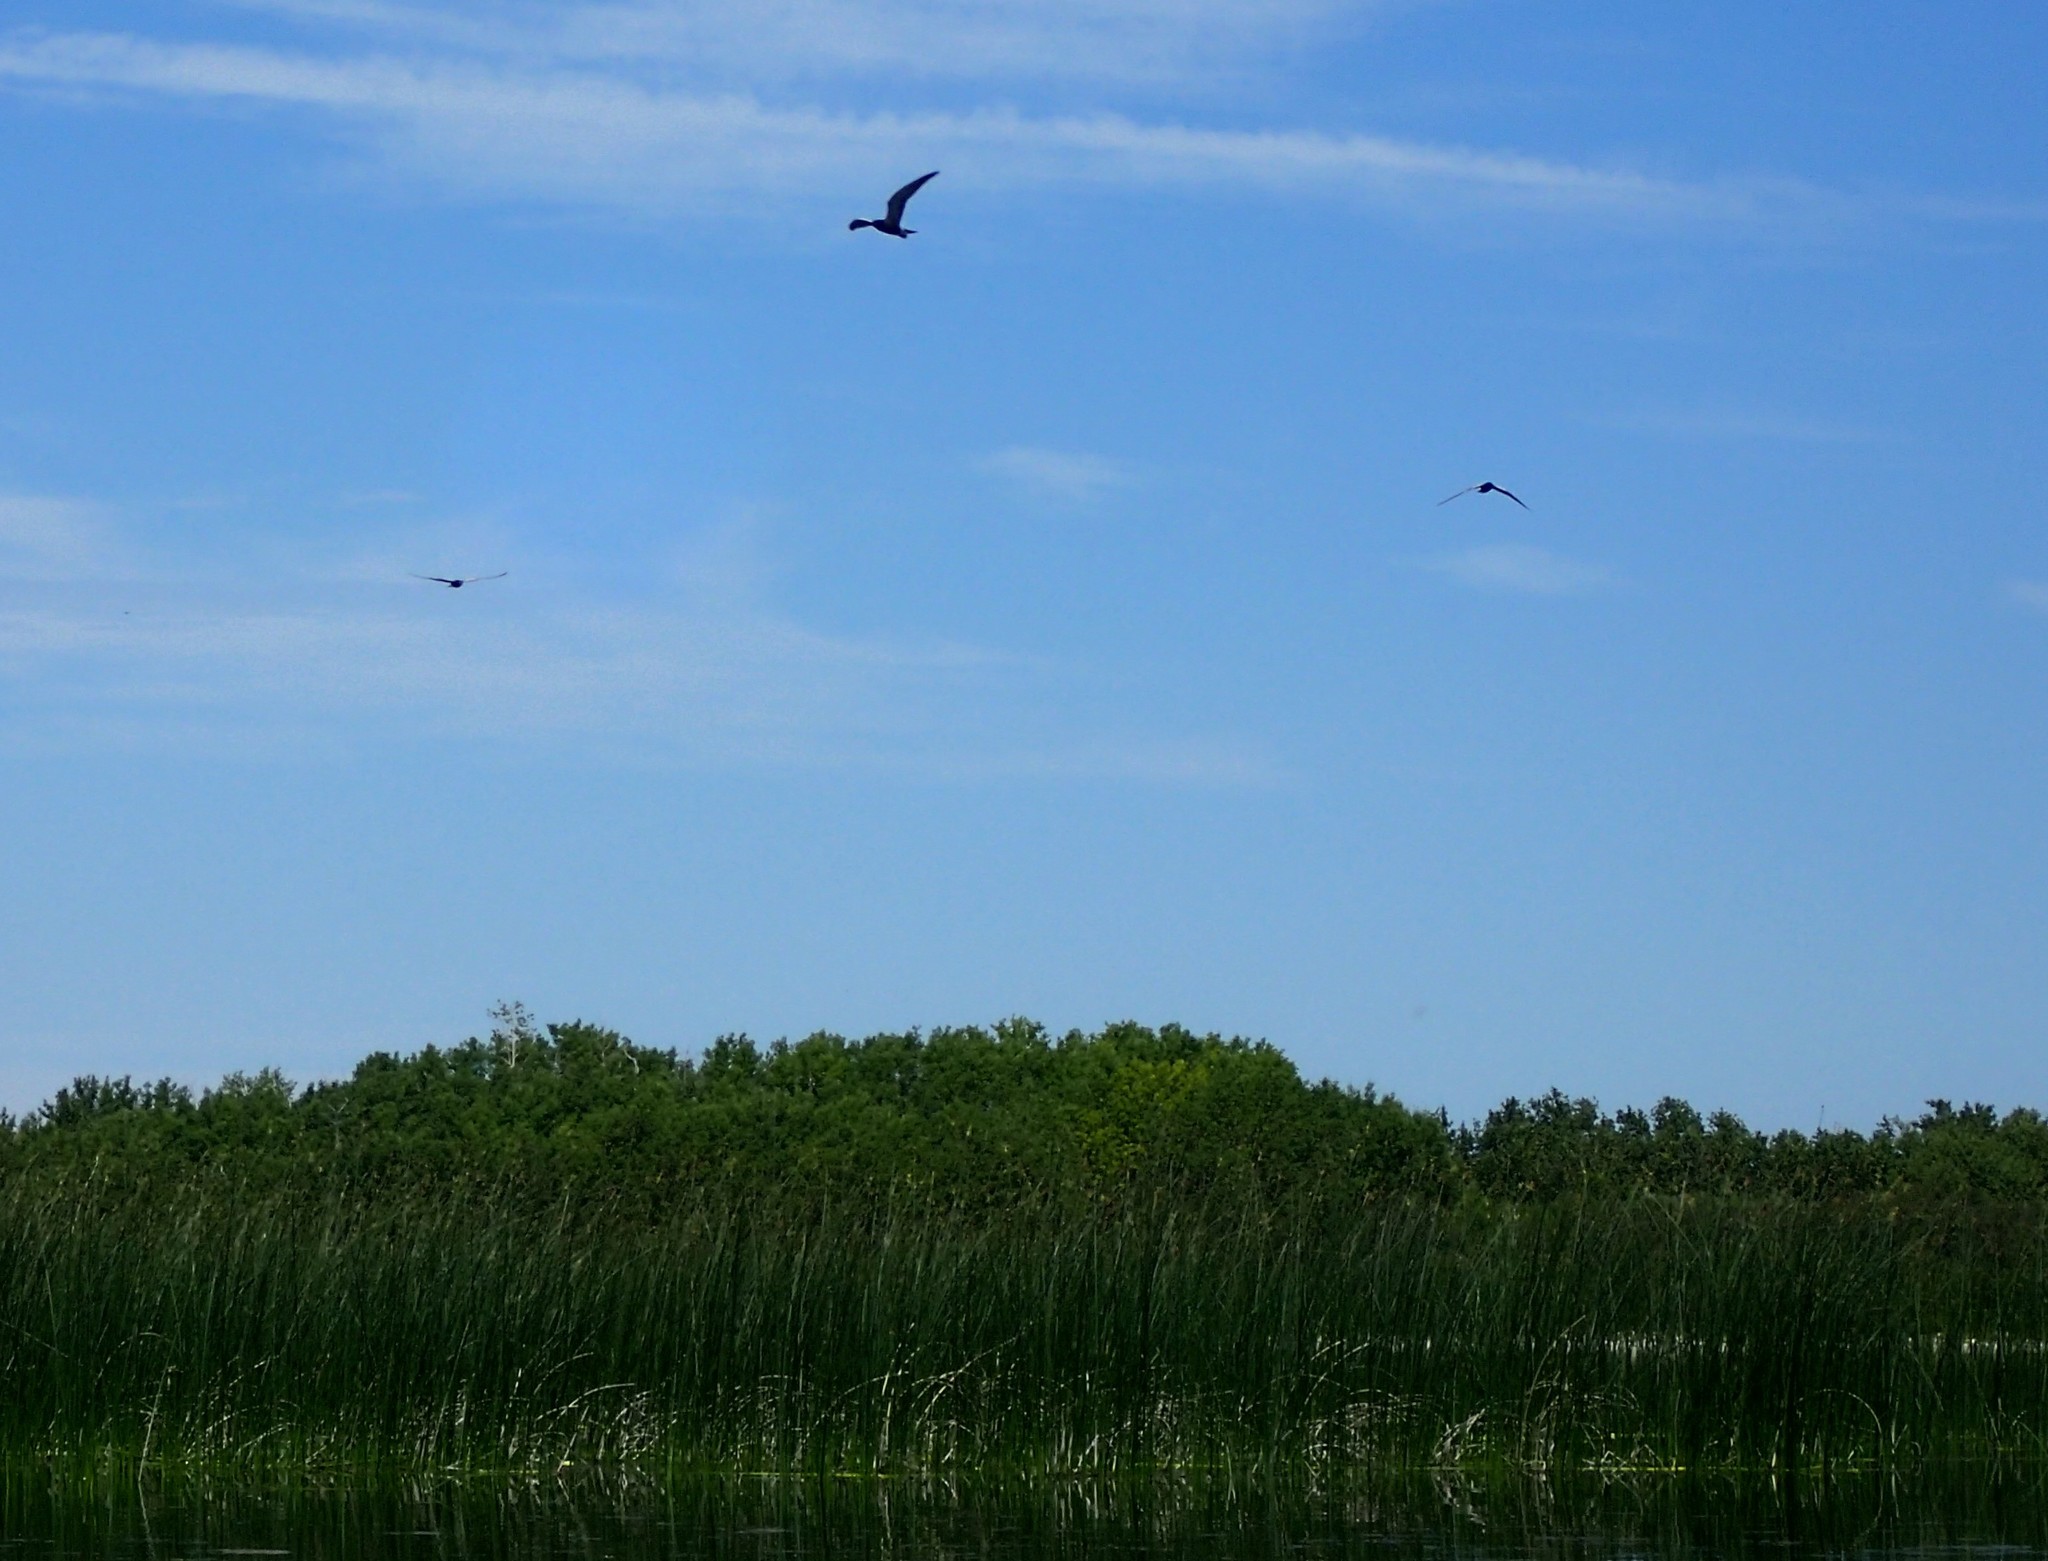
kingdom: Animalia
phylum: Chordata
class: Aves
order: Charadriiformes
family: Laridae
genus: Chlidonias
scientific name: Chlidonias niger
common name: Black tern
